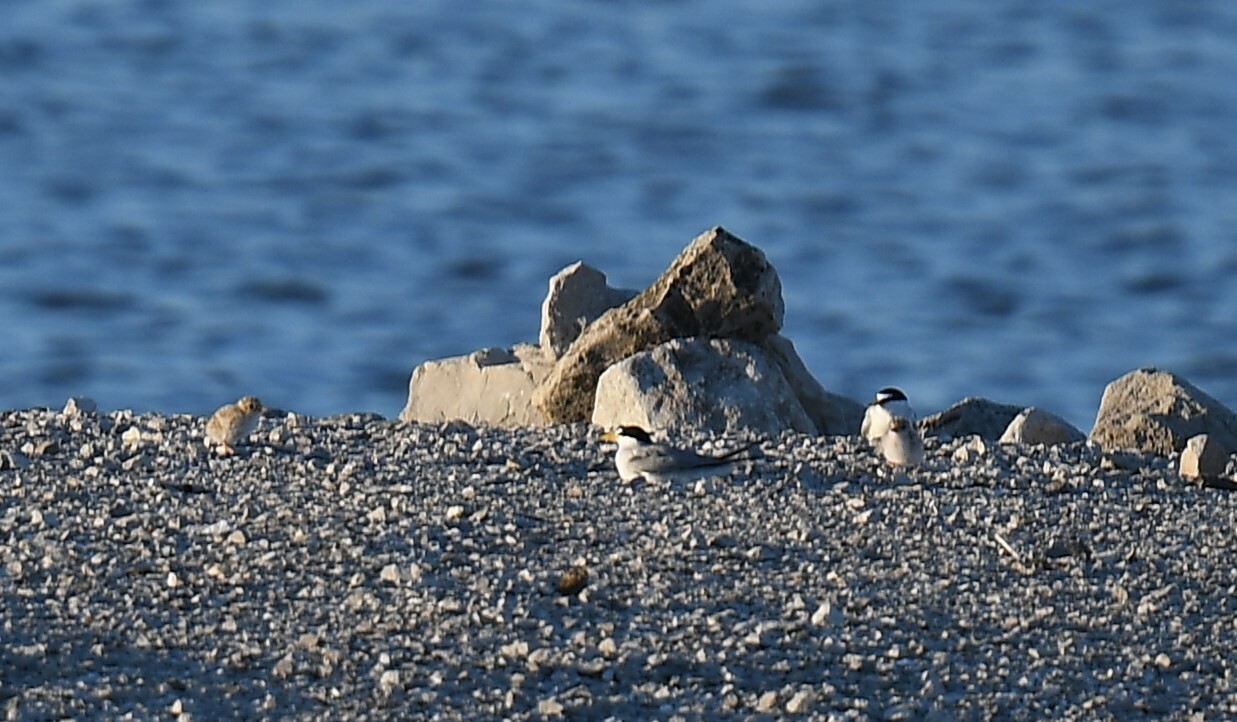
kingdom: Animalia
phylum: Chordata
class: Aves
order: Charadriiformes
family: Laridae
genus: Sternula
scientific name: Sternula antillarum
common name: Least tern
